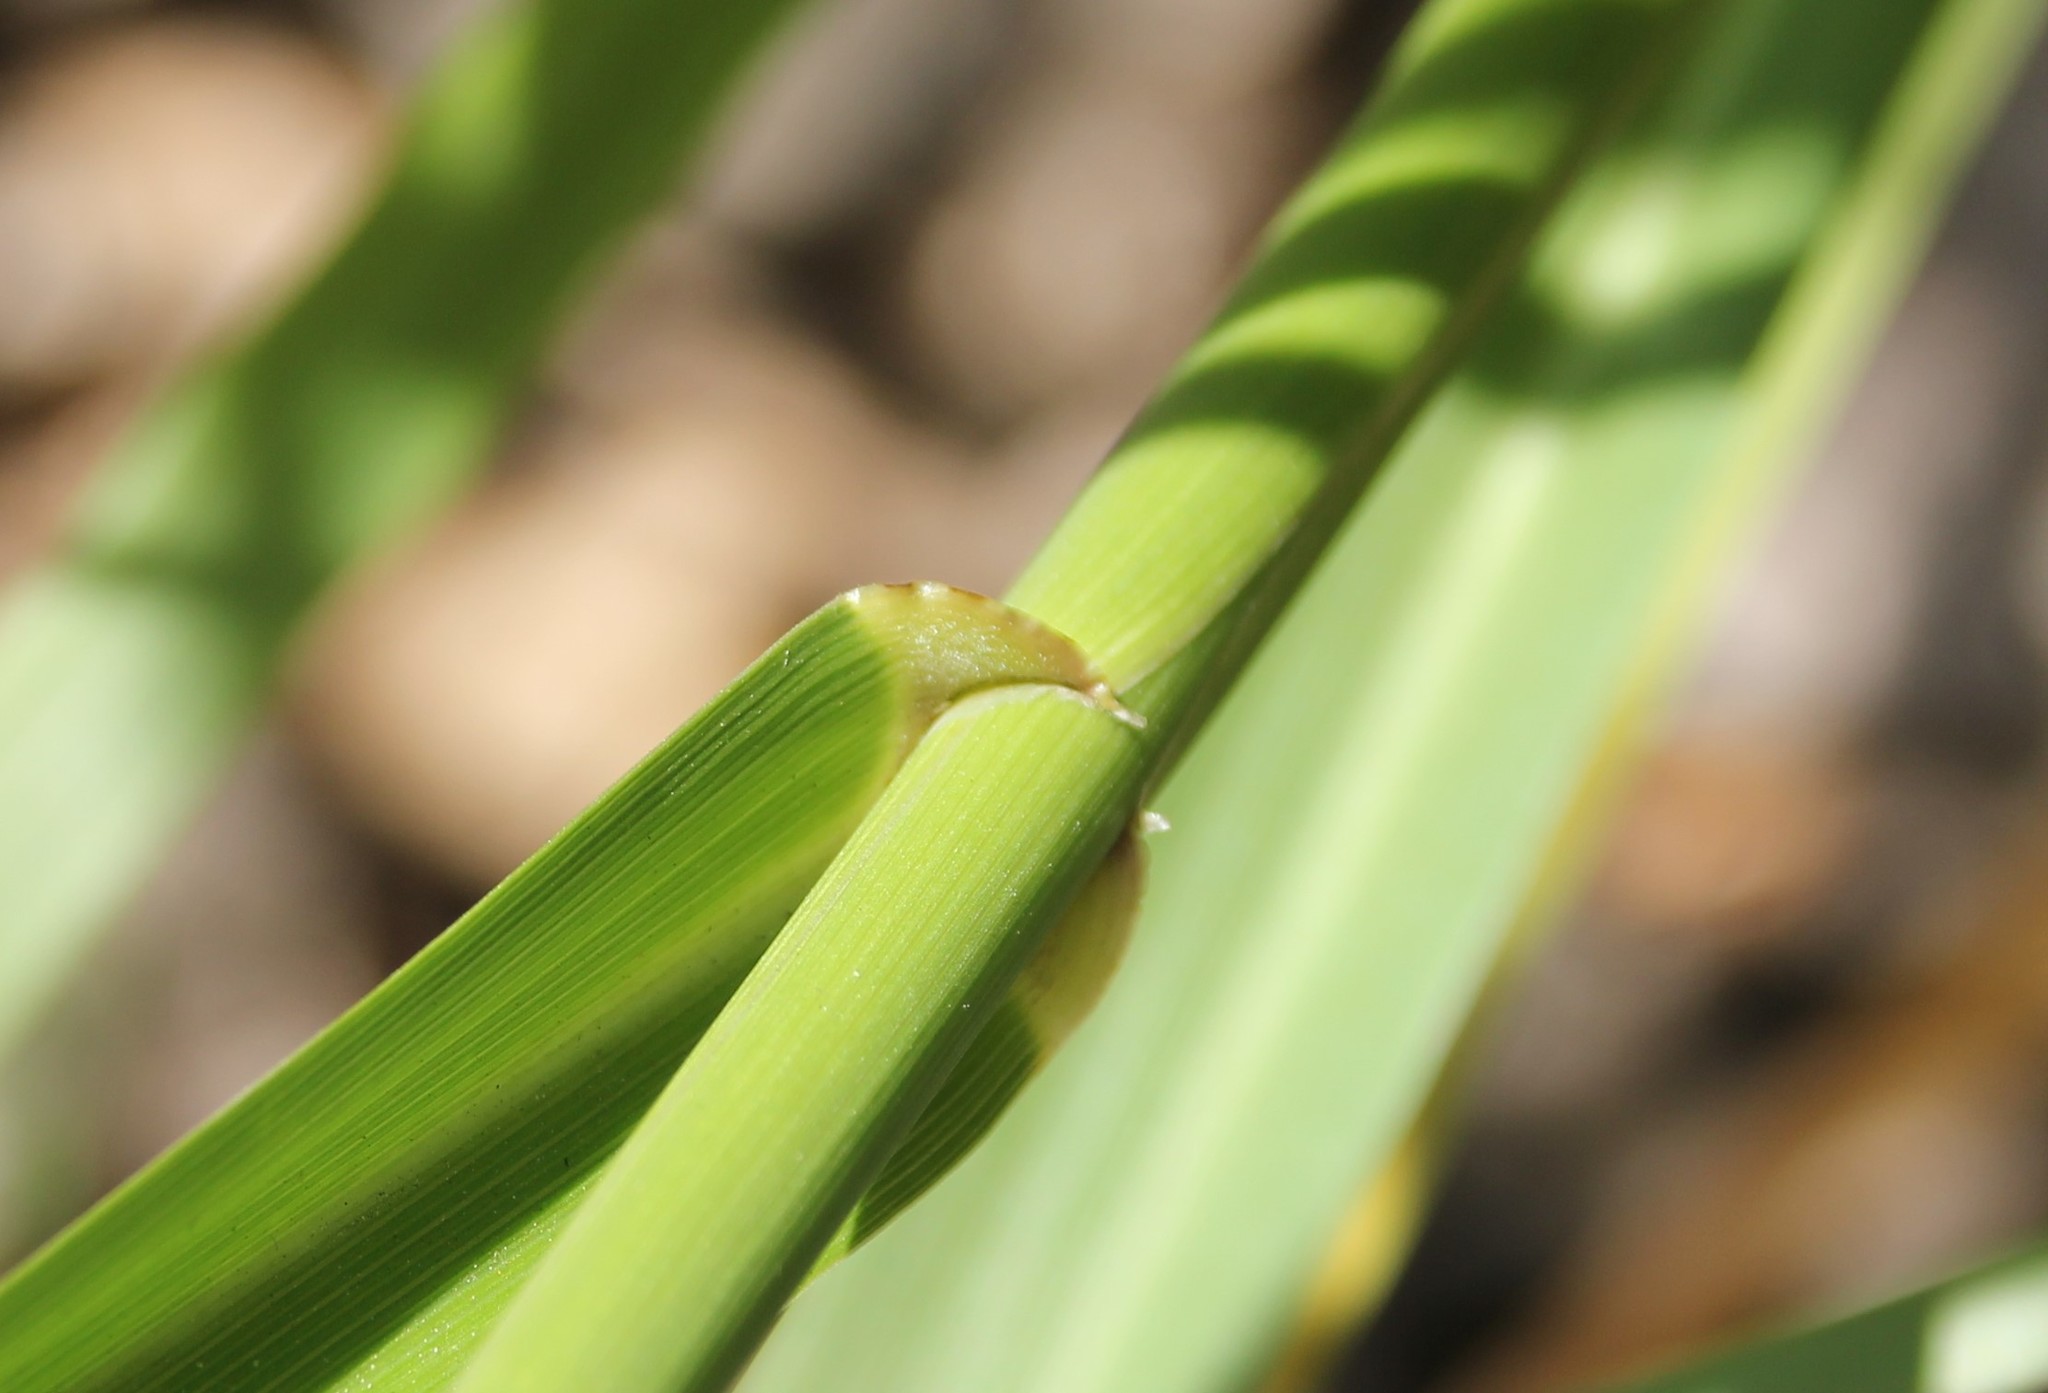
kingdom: Plantae
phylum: Tracheophyta
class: Liliopsida
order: Poales
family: Poaceae
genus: Leymus
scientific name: Leymus condensatus
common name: Giant wild rye
